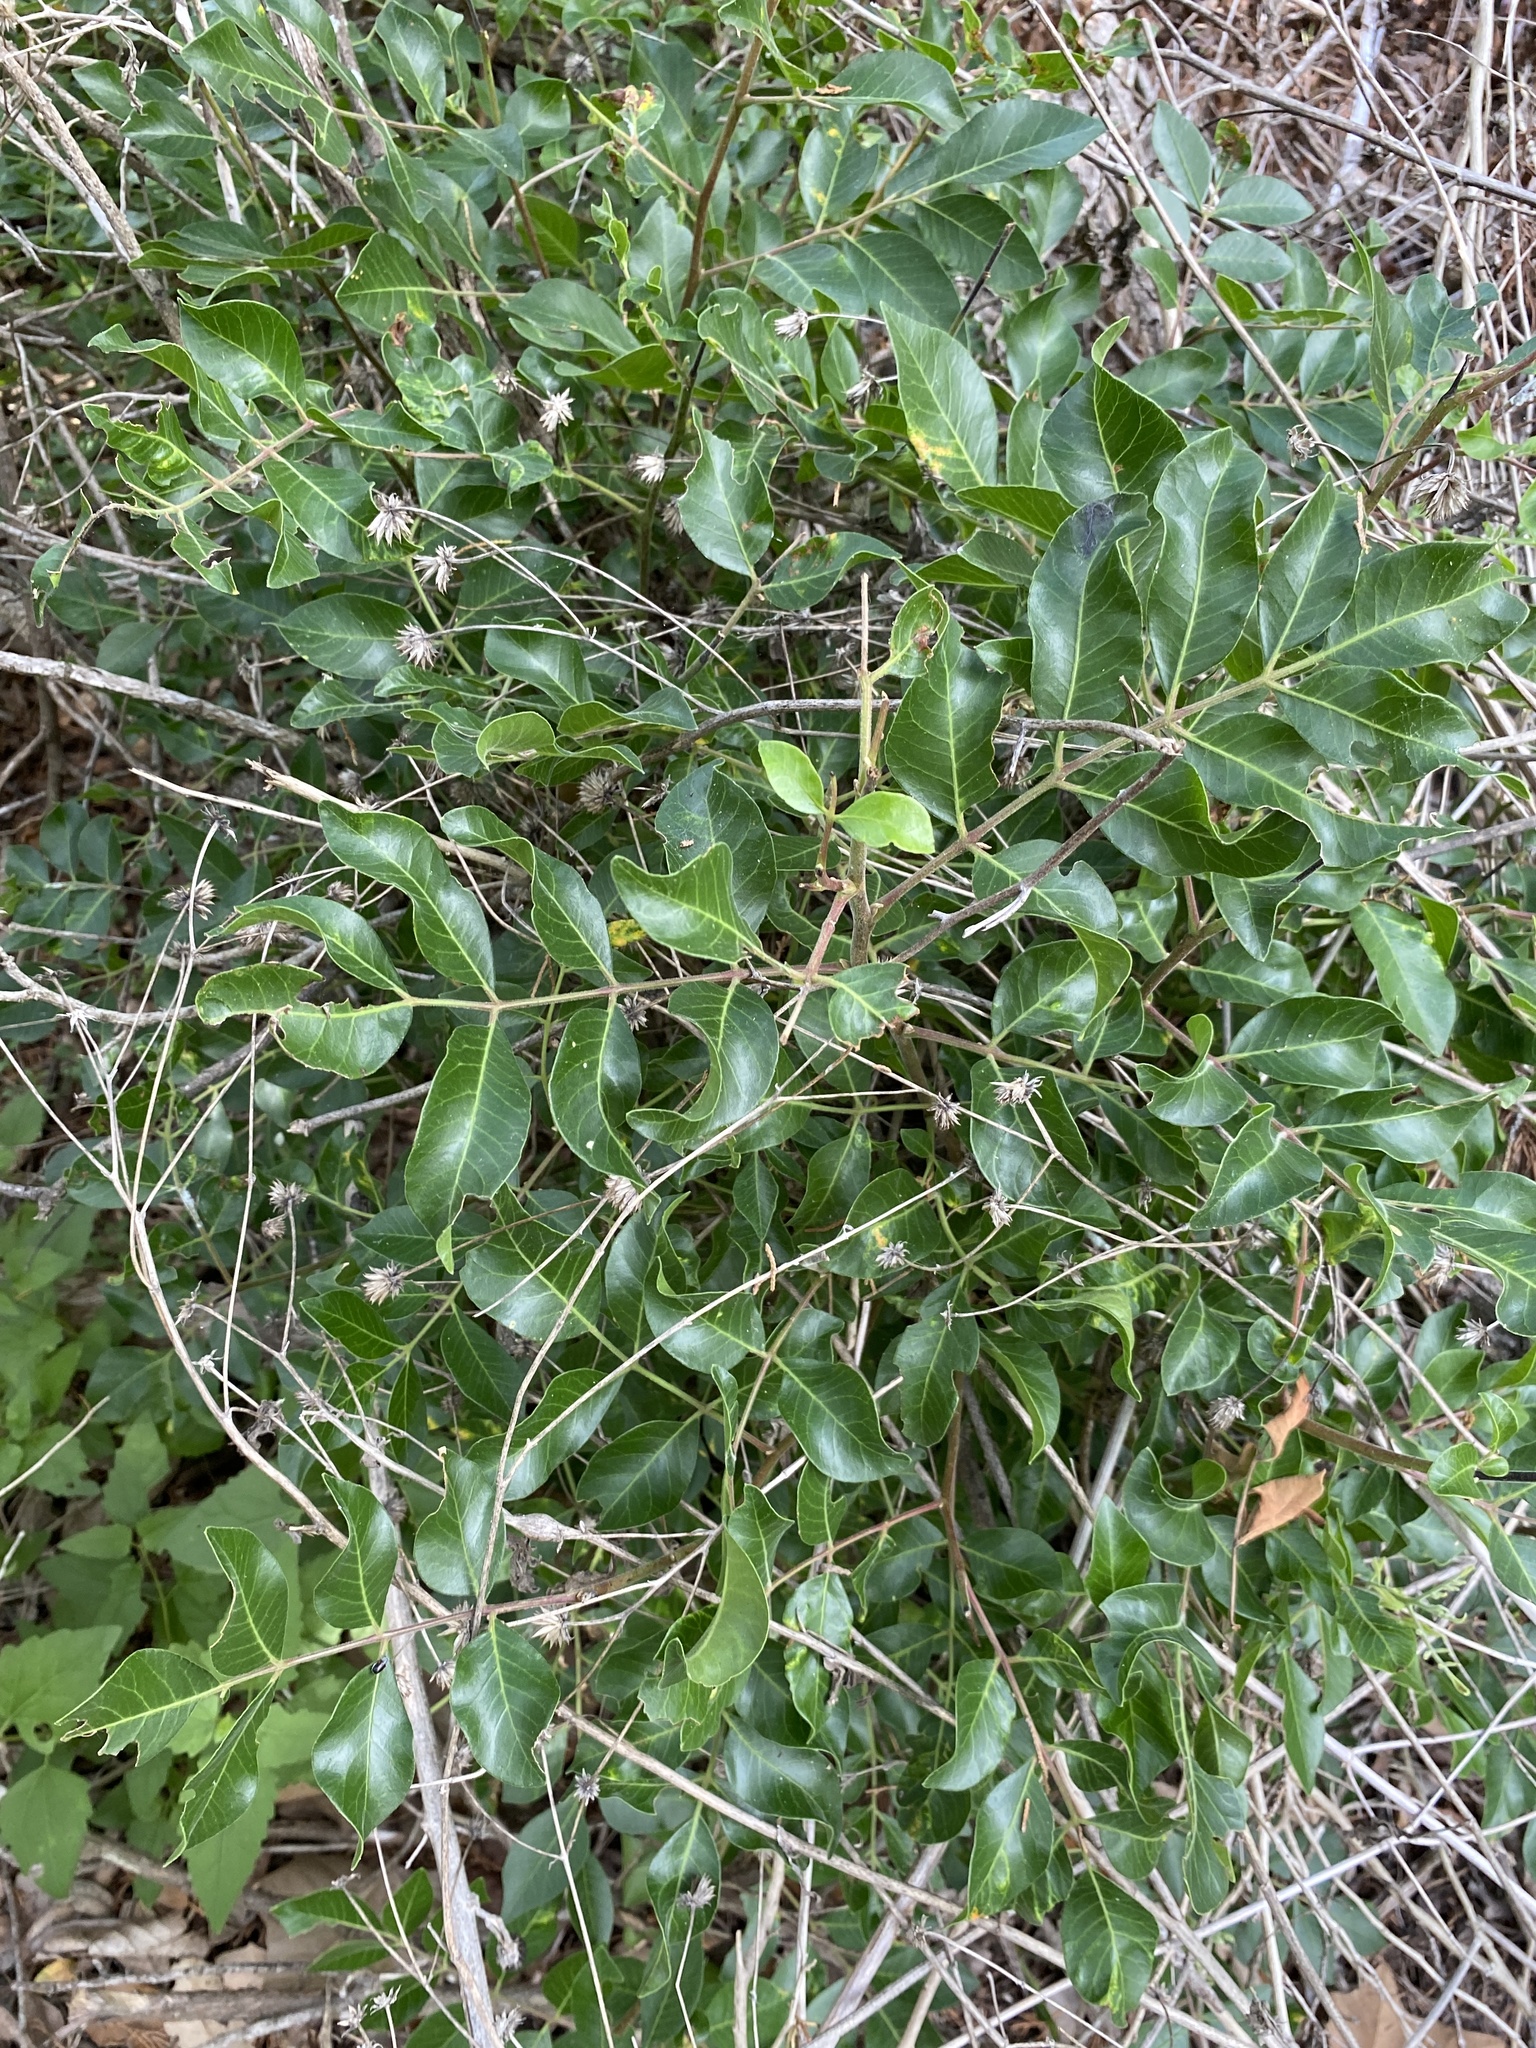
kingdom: Plantae
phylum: Tracheophyta
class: Magnoliopsida
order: Sapindales
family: Anacardiaceae
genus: Rhus
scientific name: Rhus virens
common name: Evergreen sumac
